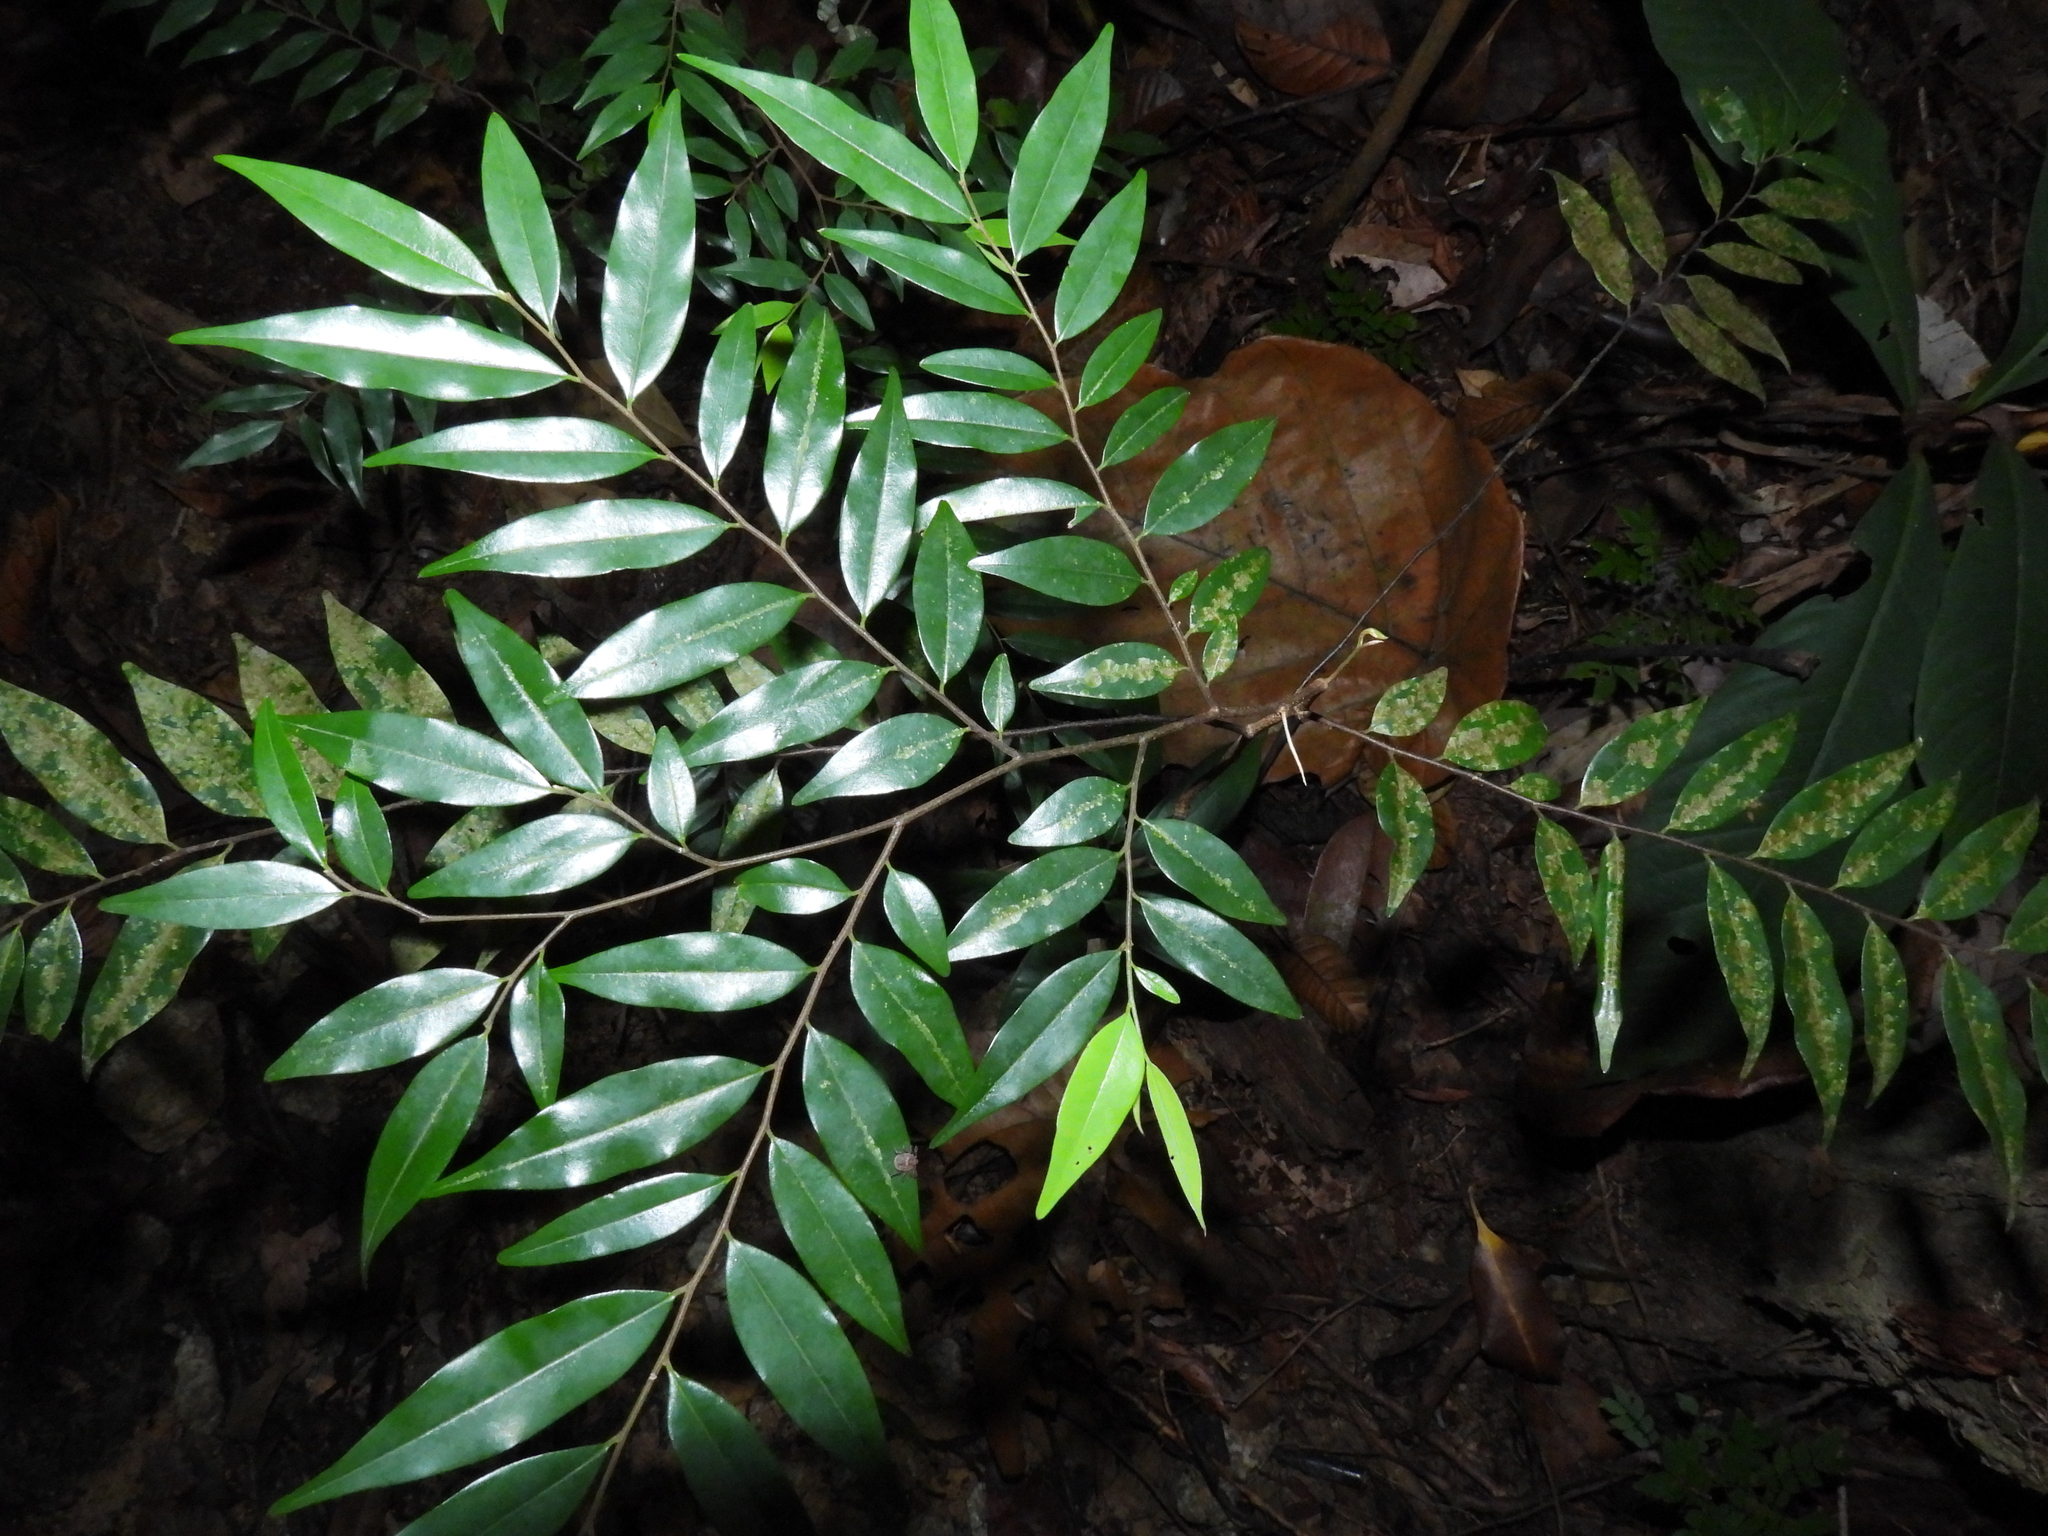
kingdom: Plantae
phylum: Tracheophyta
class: Magnoliopsida
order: Ericales
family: Ebenaceae
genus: Diospyros
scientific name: Diospyros singaporensis
